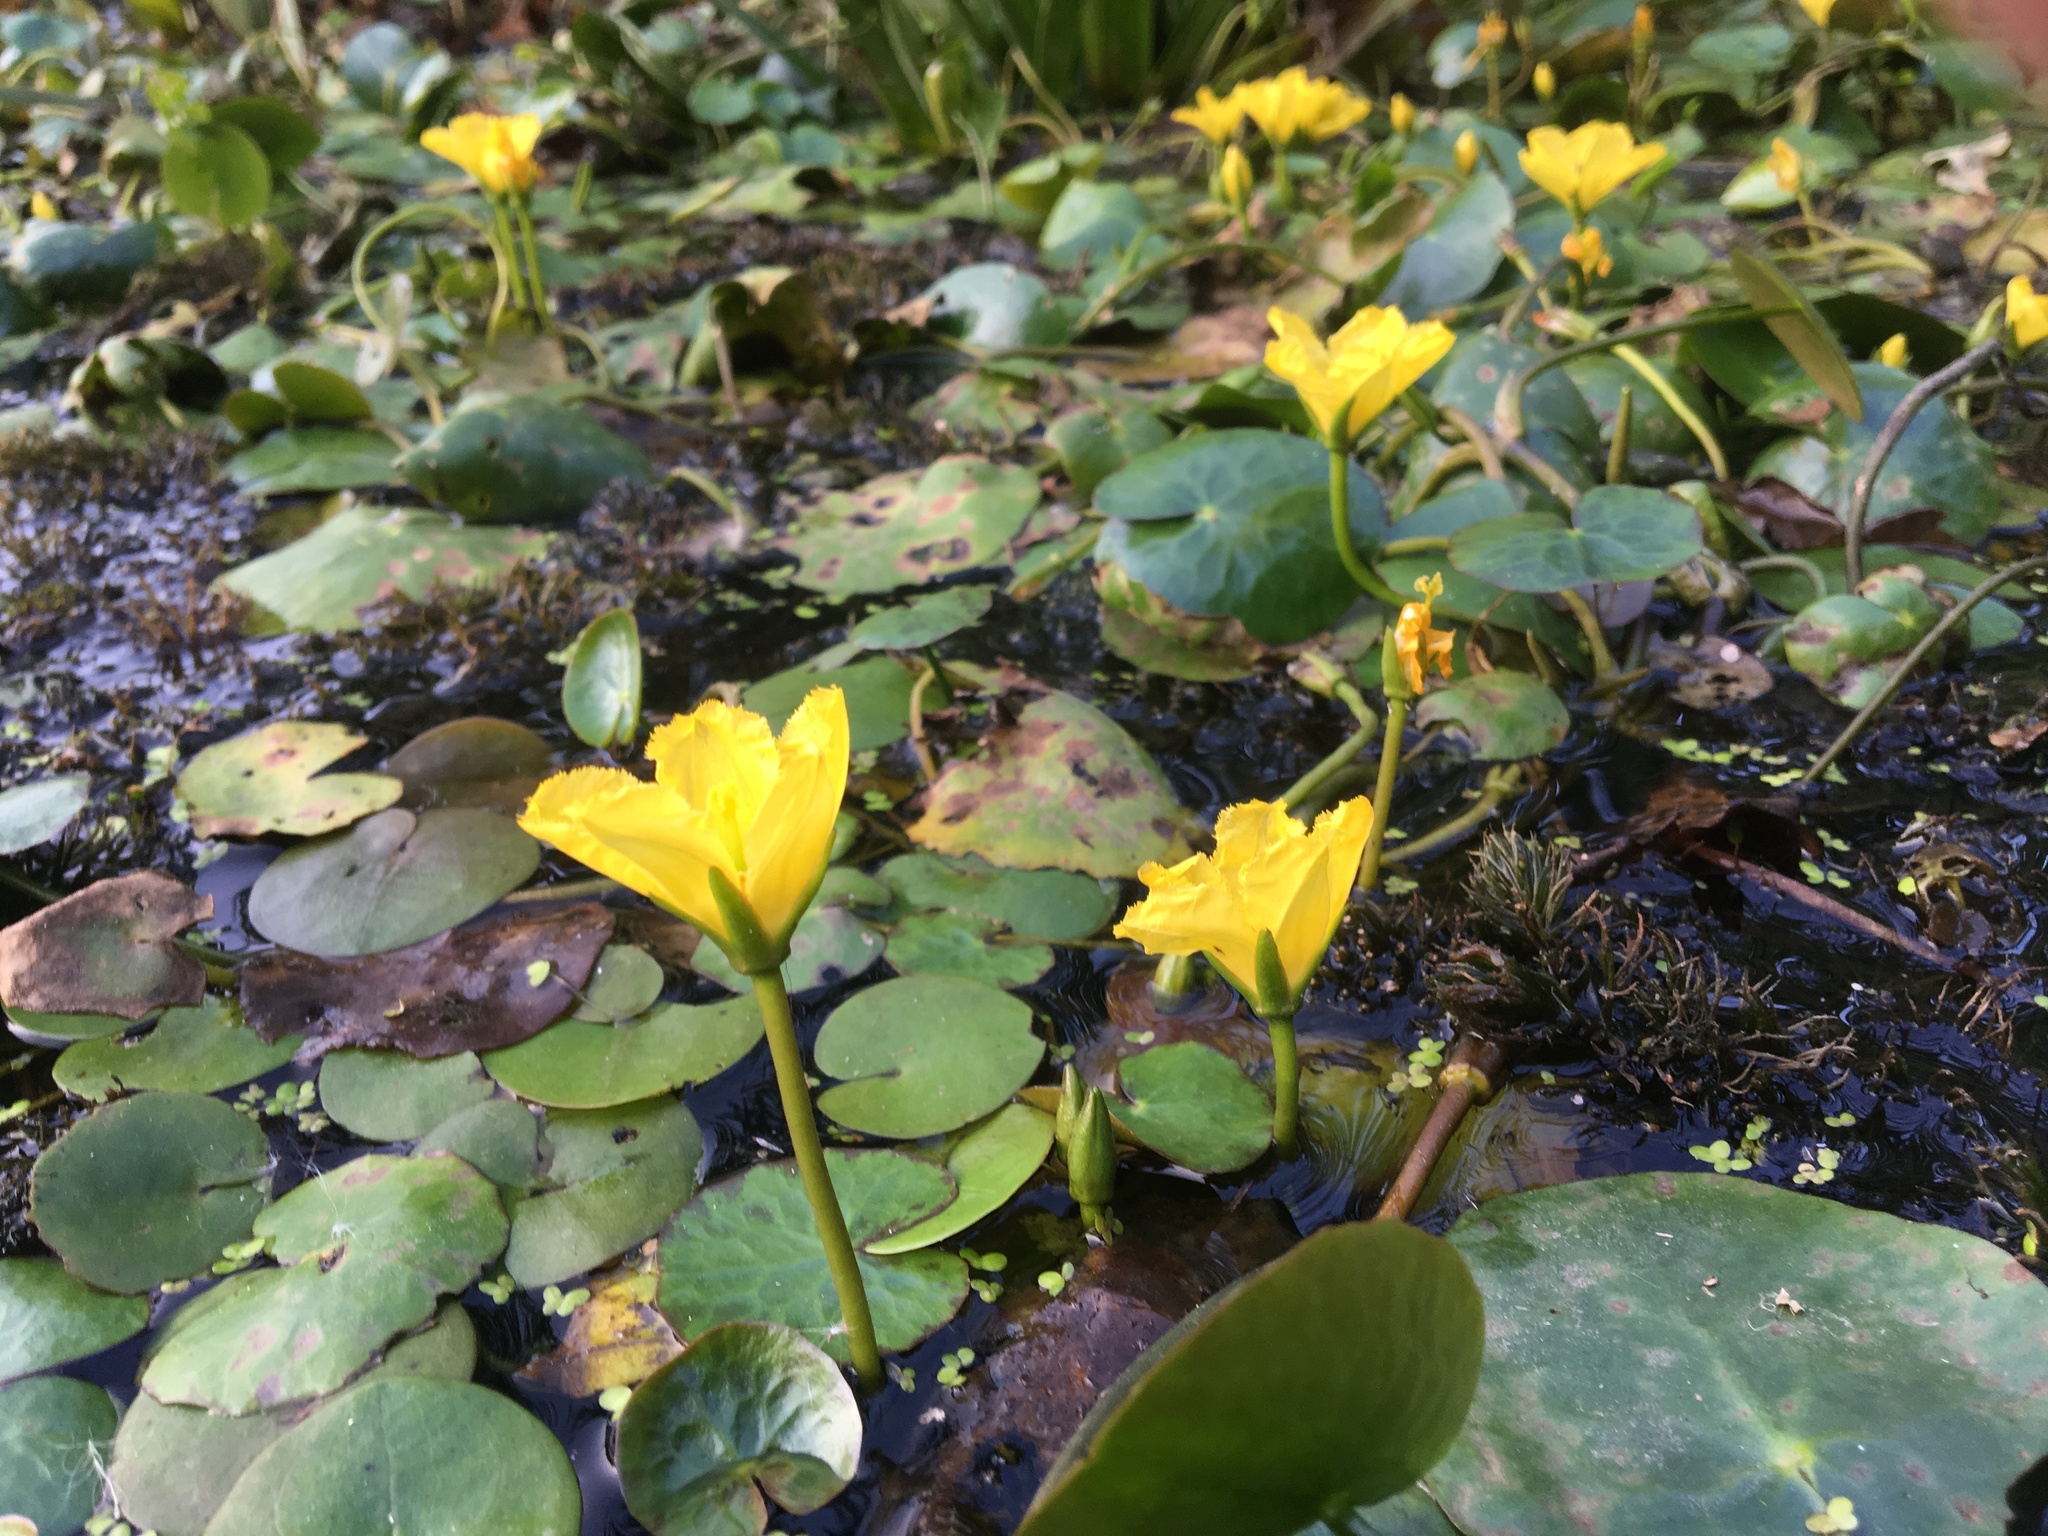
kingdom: Plantae
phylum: Tracheophyta
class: Magnoliopsida
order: Asterales
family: Menyanthaceae
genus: Nymphoides
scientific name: Nymphoides peltata
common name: Fringed water-lily
